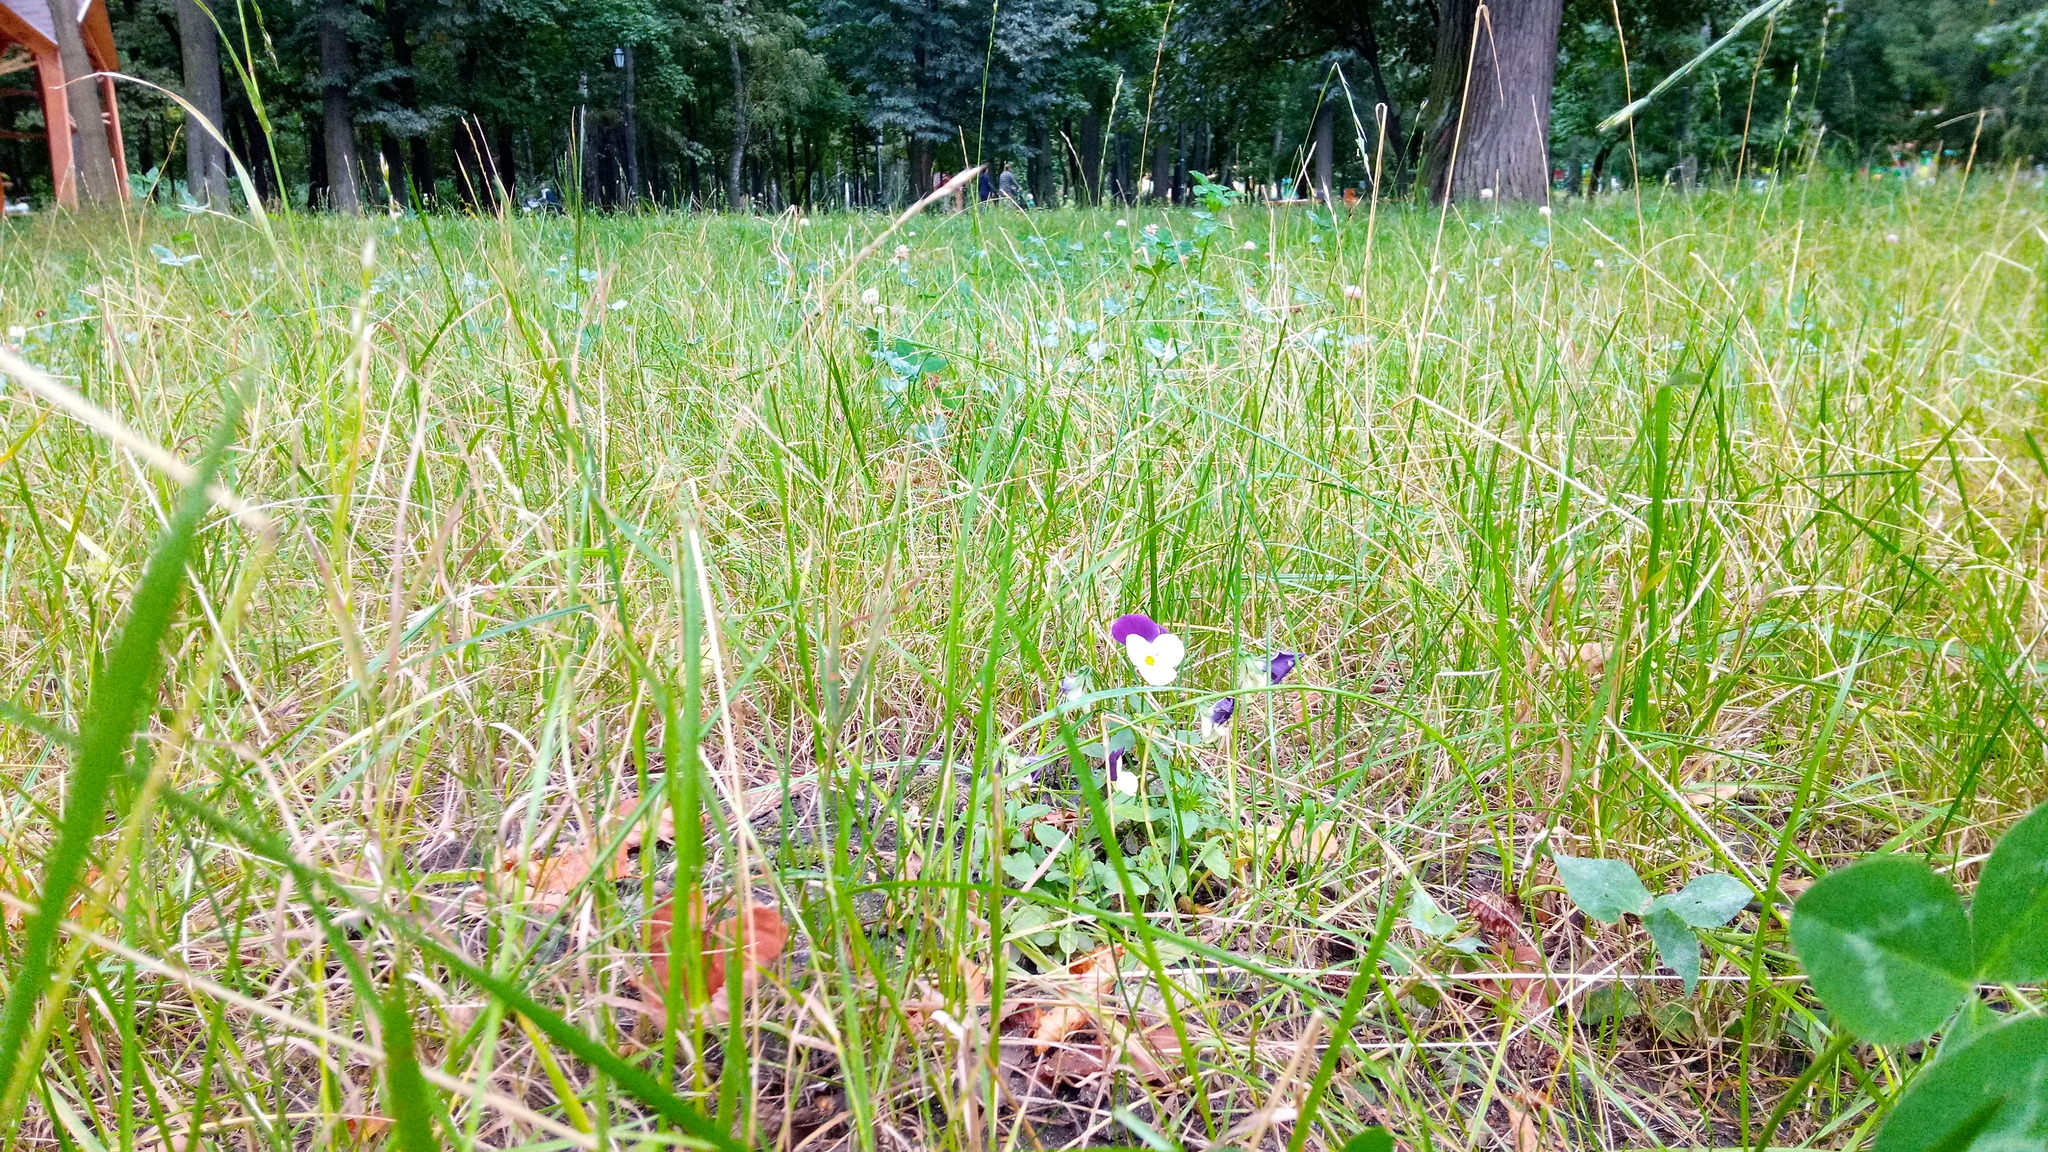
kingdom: Plantae
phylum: Tracheophyta
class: Magnoliopsida
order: Malpighiales
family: Violaceae
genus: Viola
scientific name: Viola tricolor
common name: Pansy
